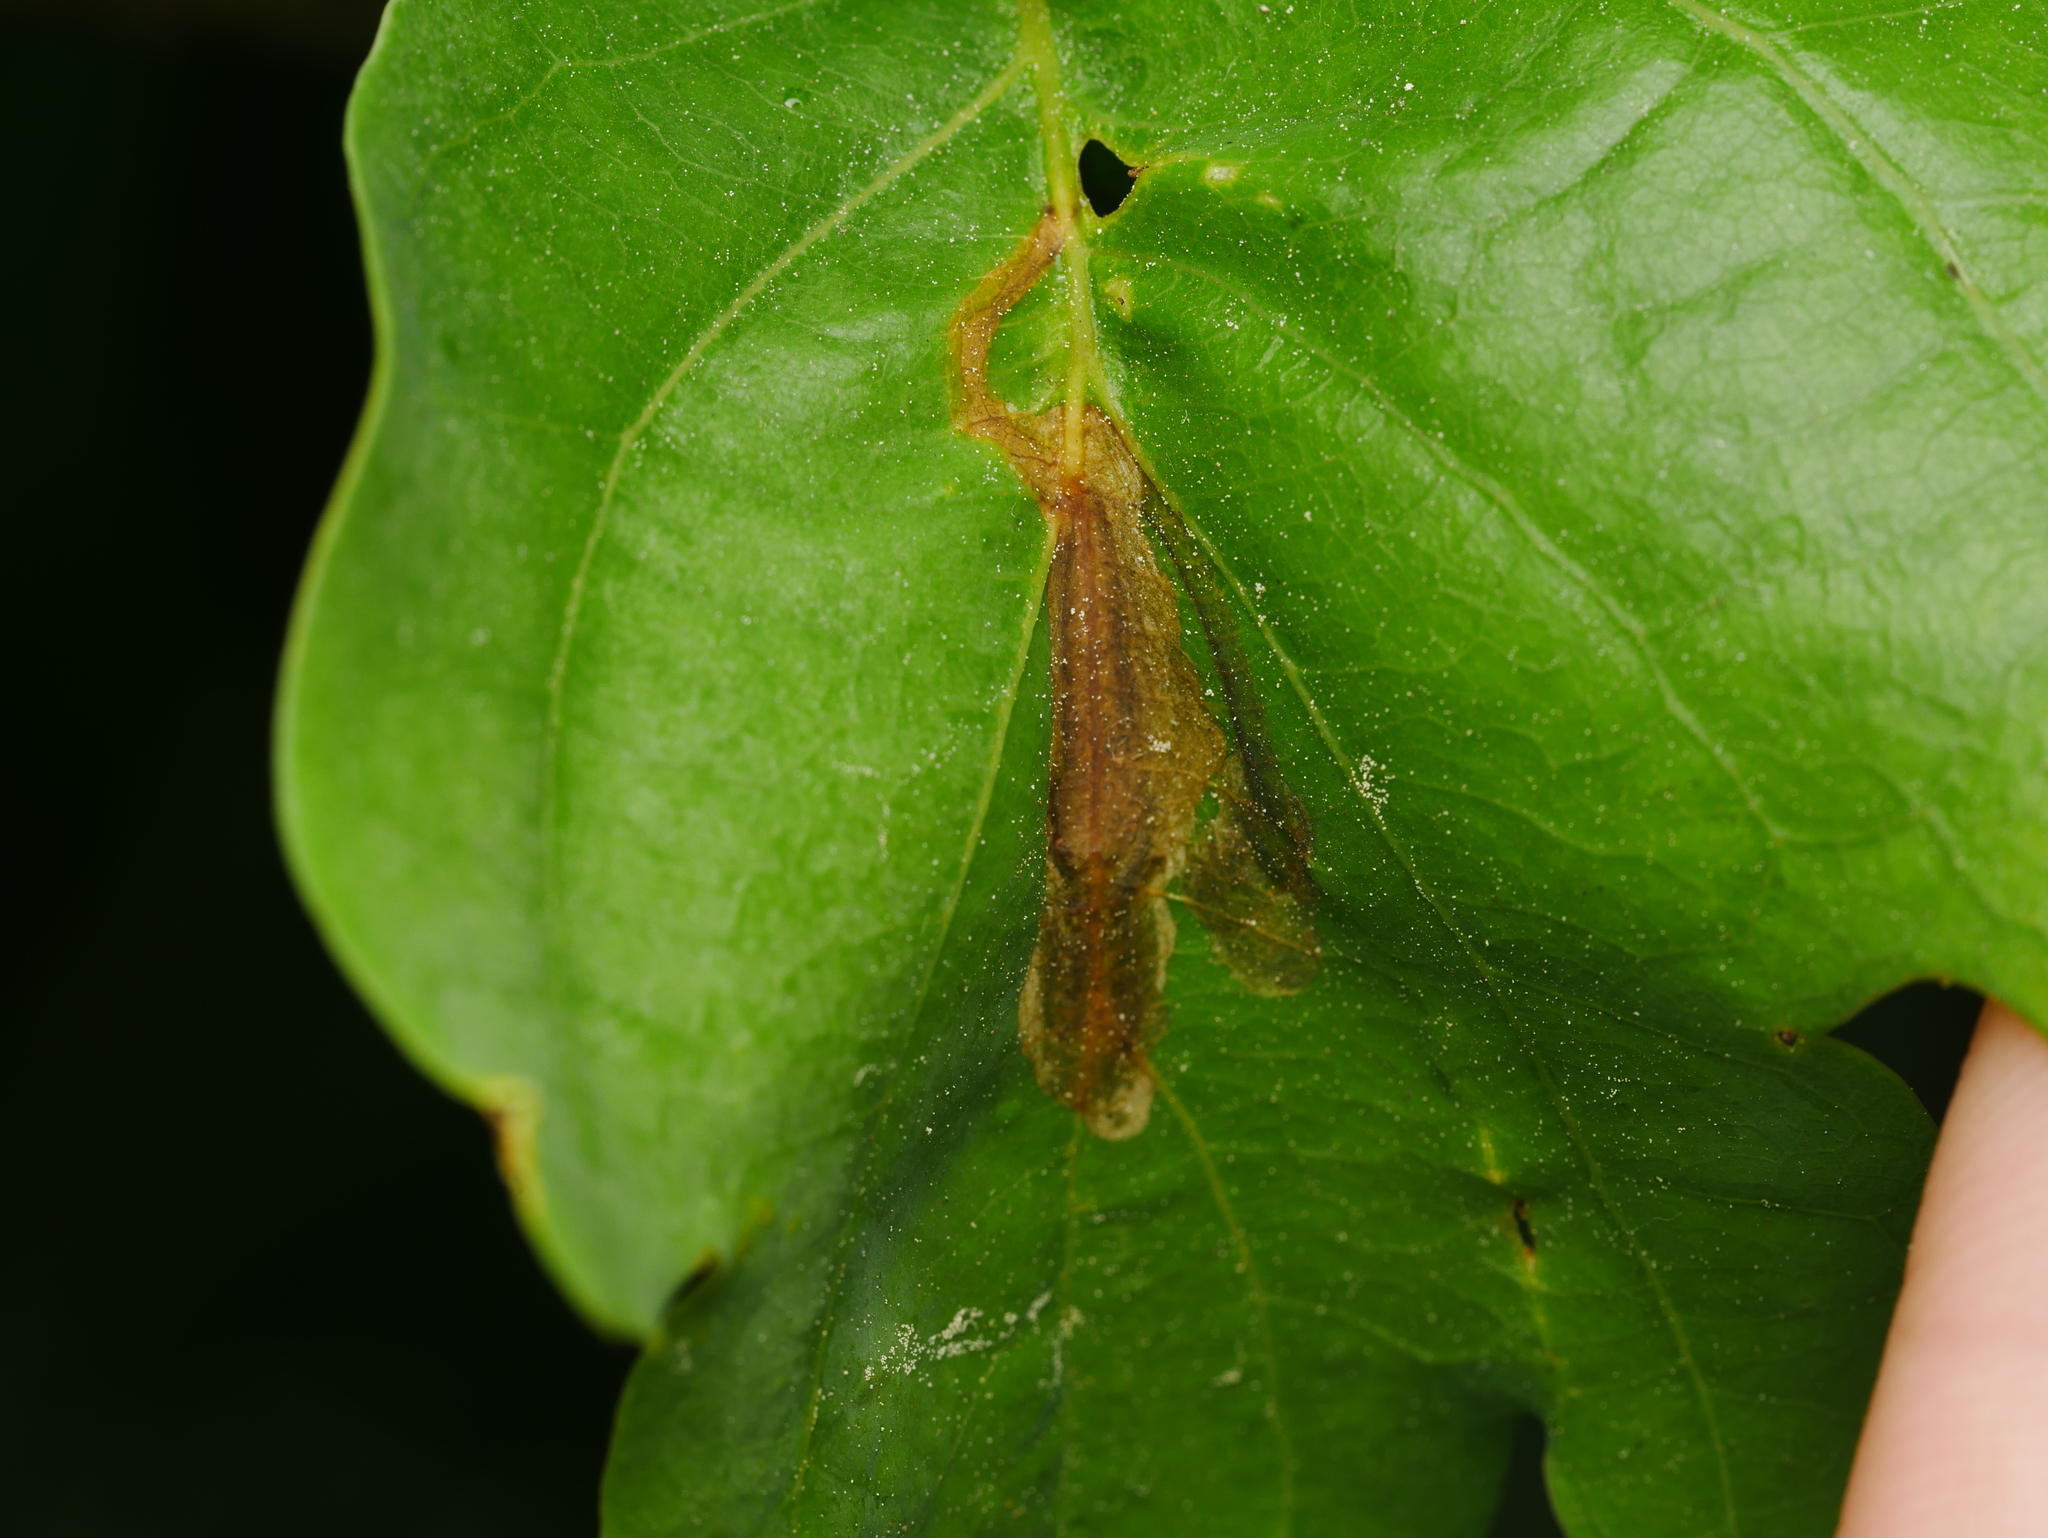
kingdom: Animalia
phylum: Arthropoda
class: Insecta
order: Coleoptera
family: Curculionidae
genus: Orchestes
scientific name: Orchestes quercus
